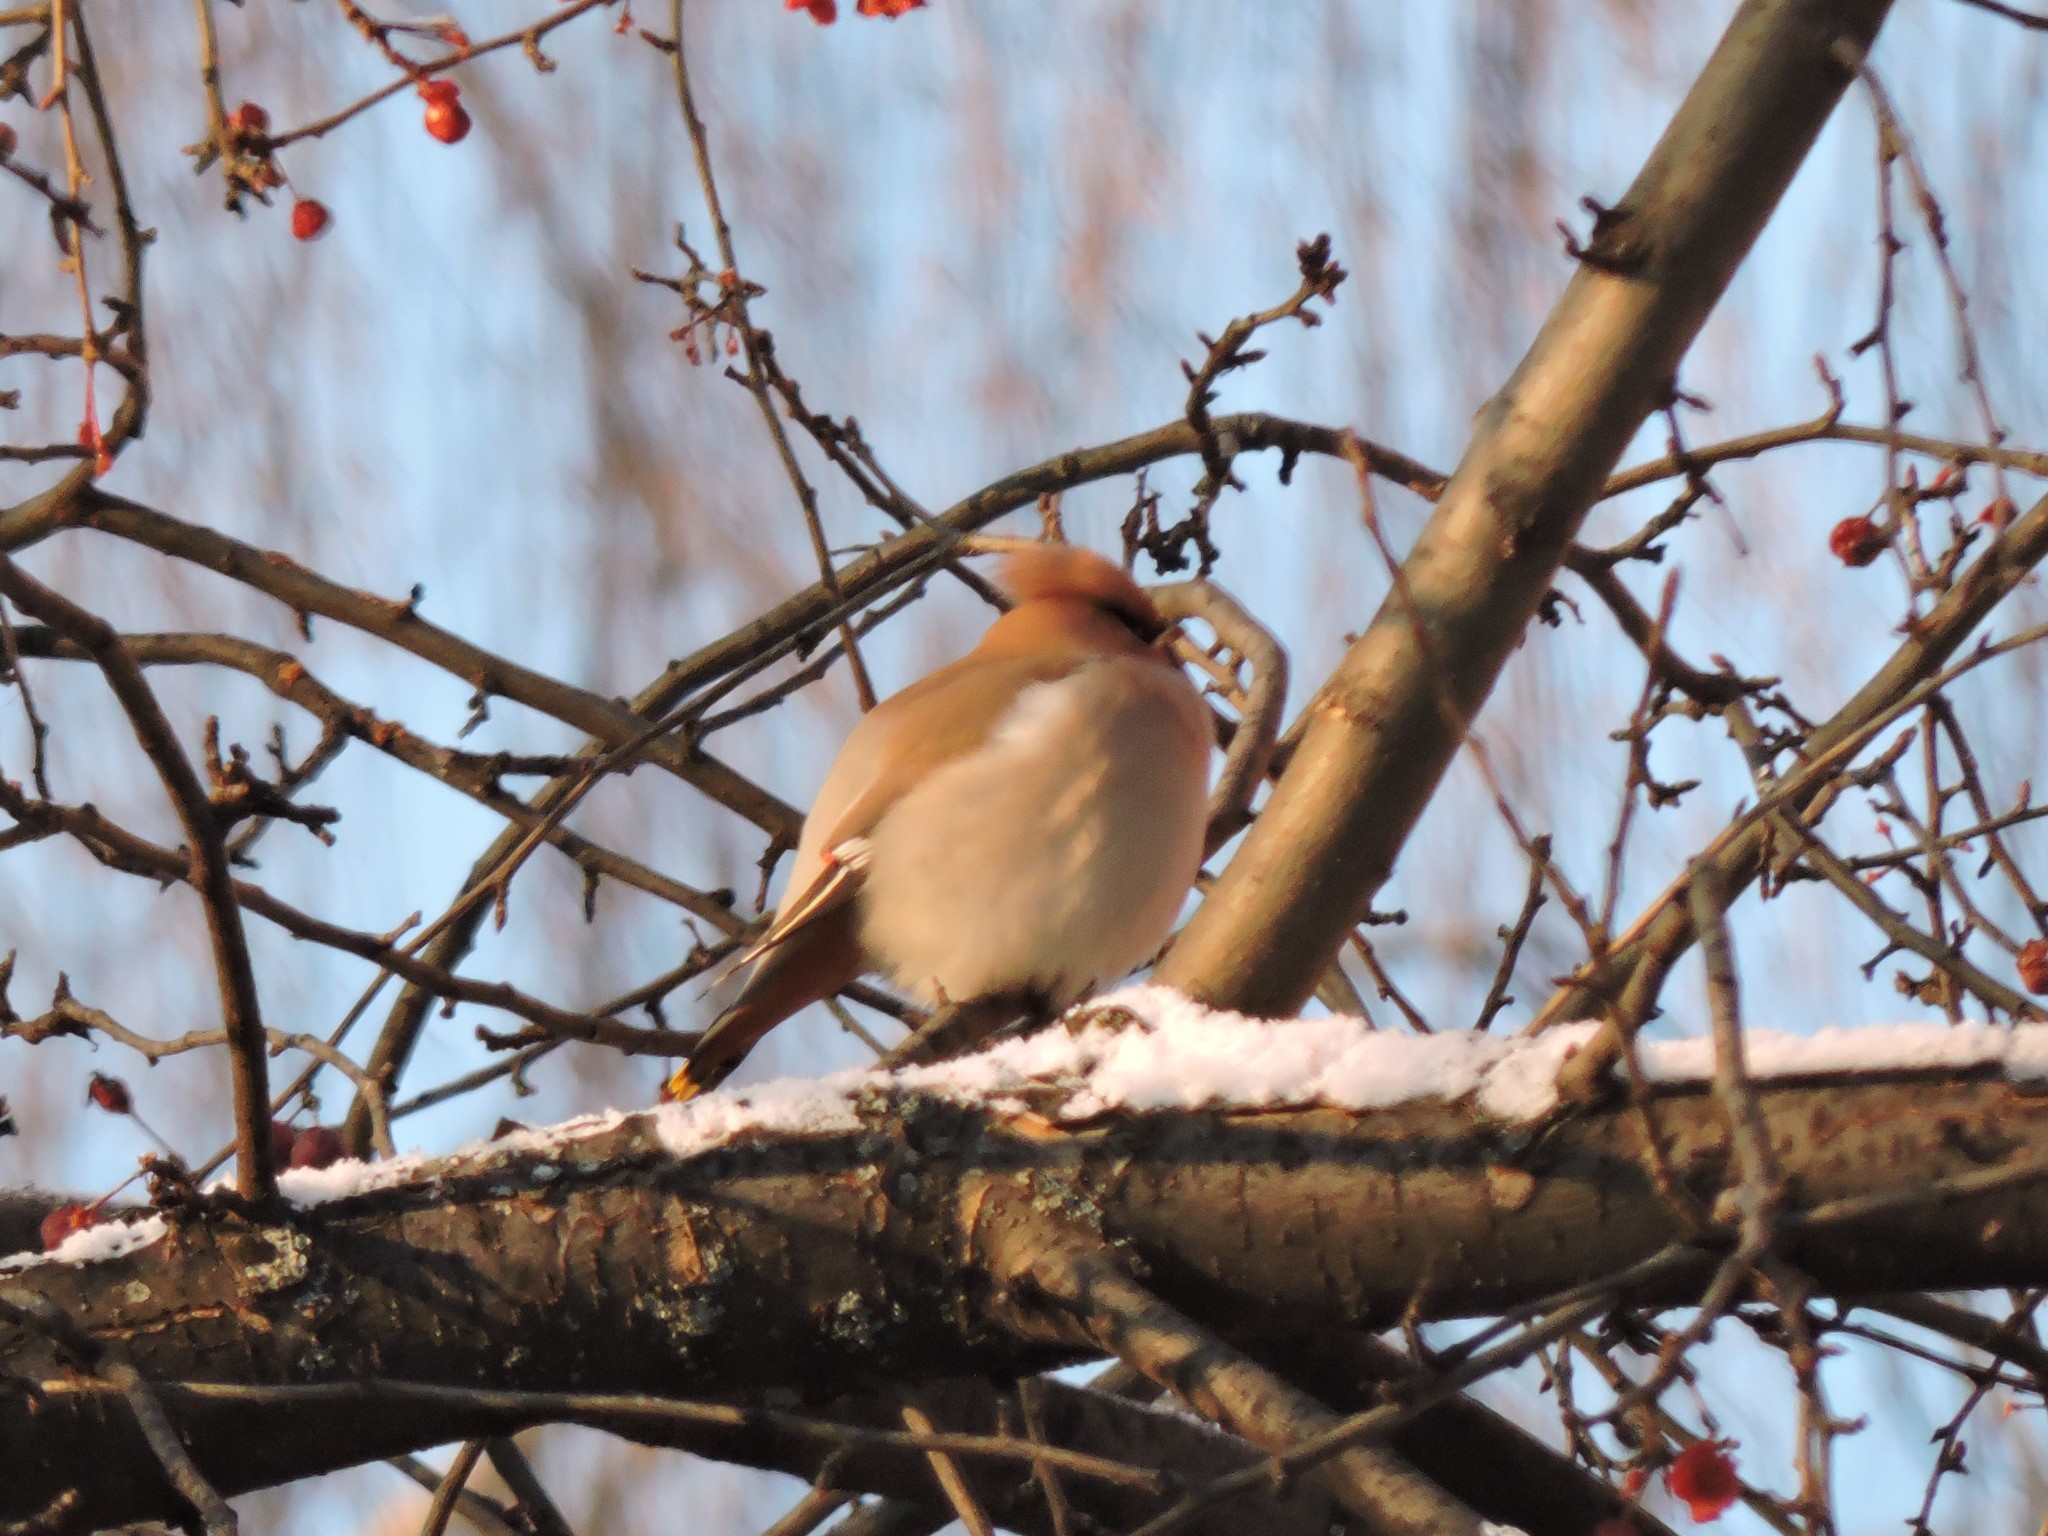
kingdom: Animalia
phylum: Chordata
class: Aves
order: Passeriformes
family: Bombycillidae
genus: Bombycilla
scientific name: Bombycilla garrulus
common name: Bohemian waxwing
